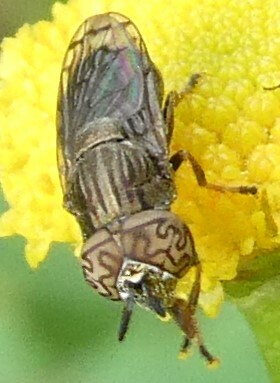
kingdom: Animalia
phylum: Arthropoda
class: Insecta
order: Diptera
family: Syrphidae
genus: Orthonevra
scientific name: Orthonevra nitida
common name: Wavy mucksucker
